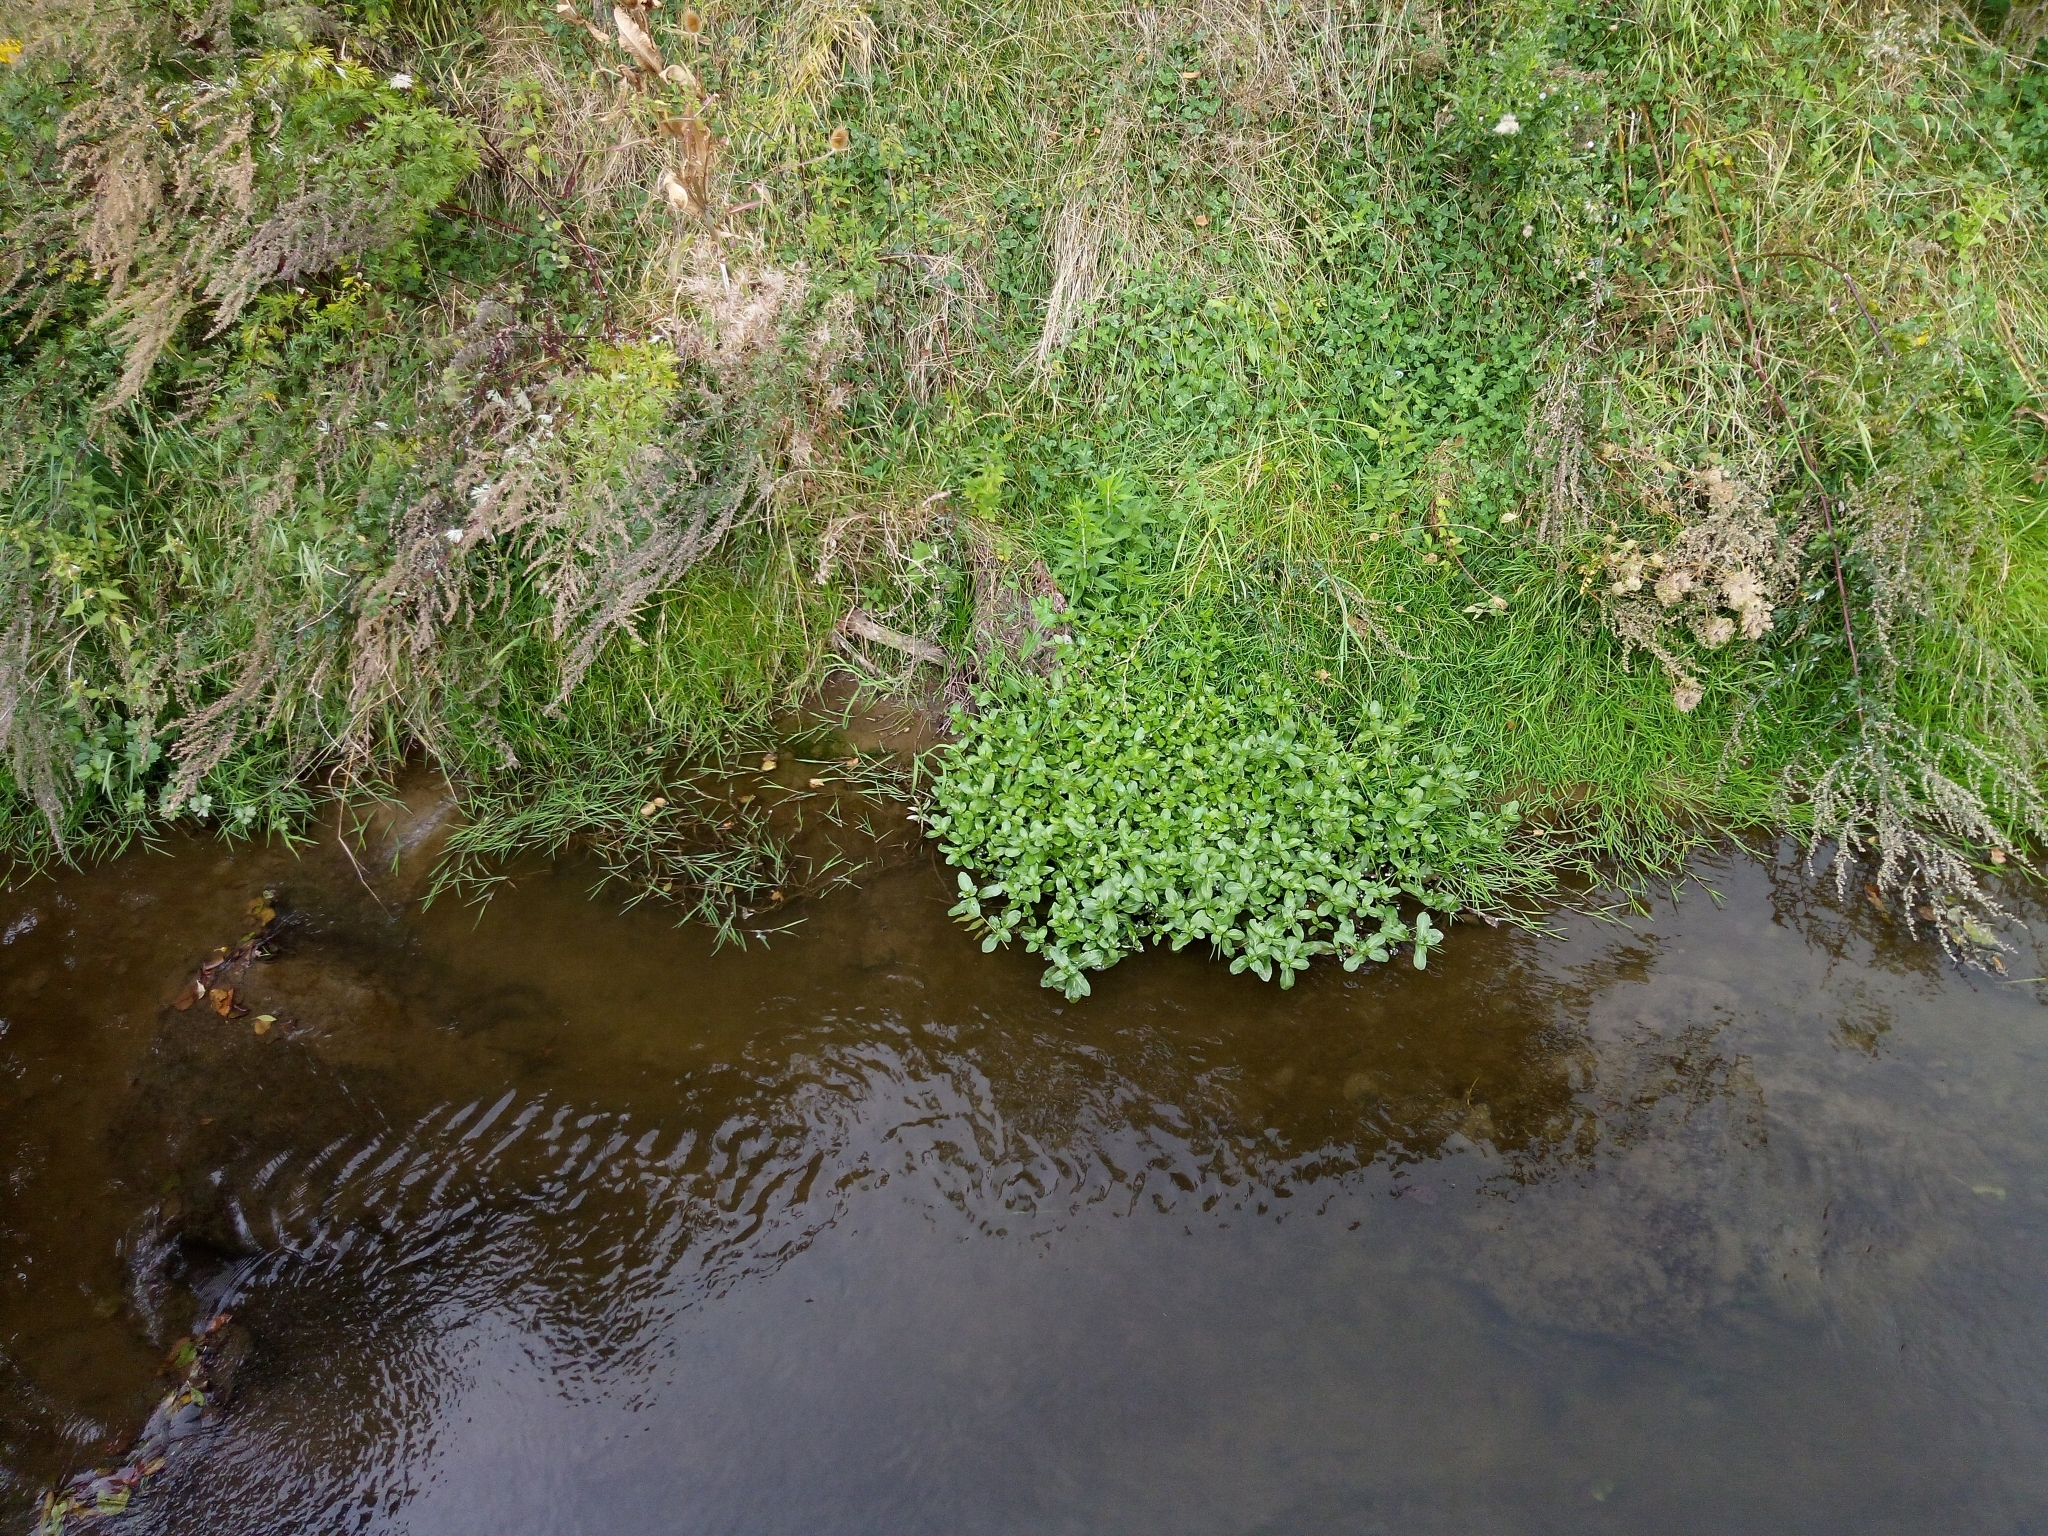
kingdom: Plantae
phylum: Tracheophyta
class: Magnoliopsida
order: Lamiales
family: Plantaginaceae
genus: Veronica
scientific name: Veronica beccabunga
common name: Brooklime
